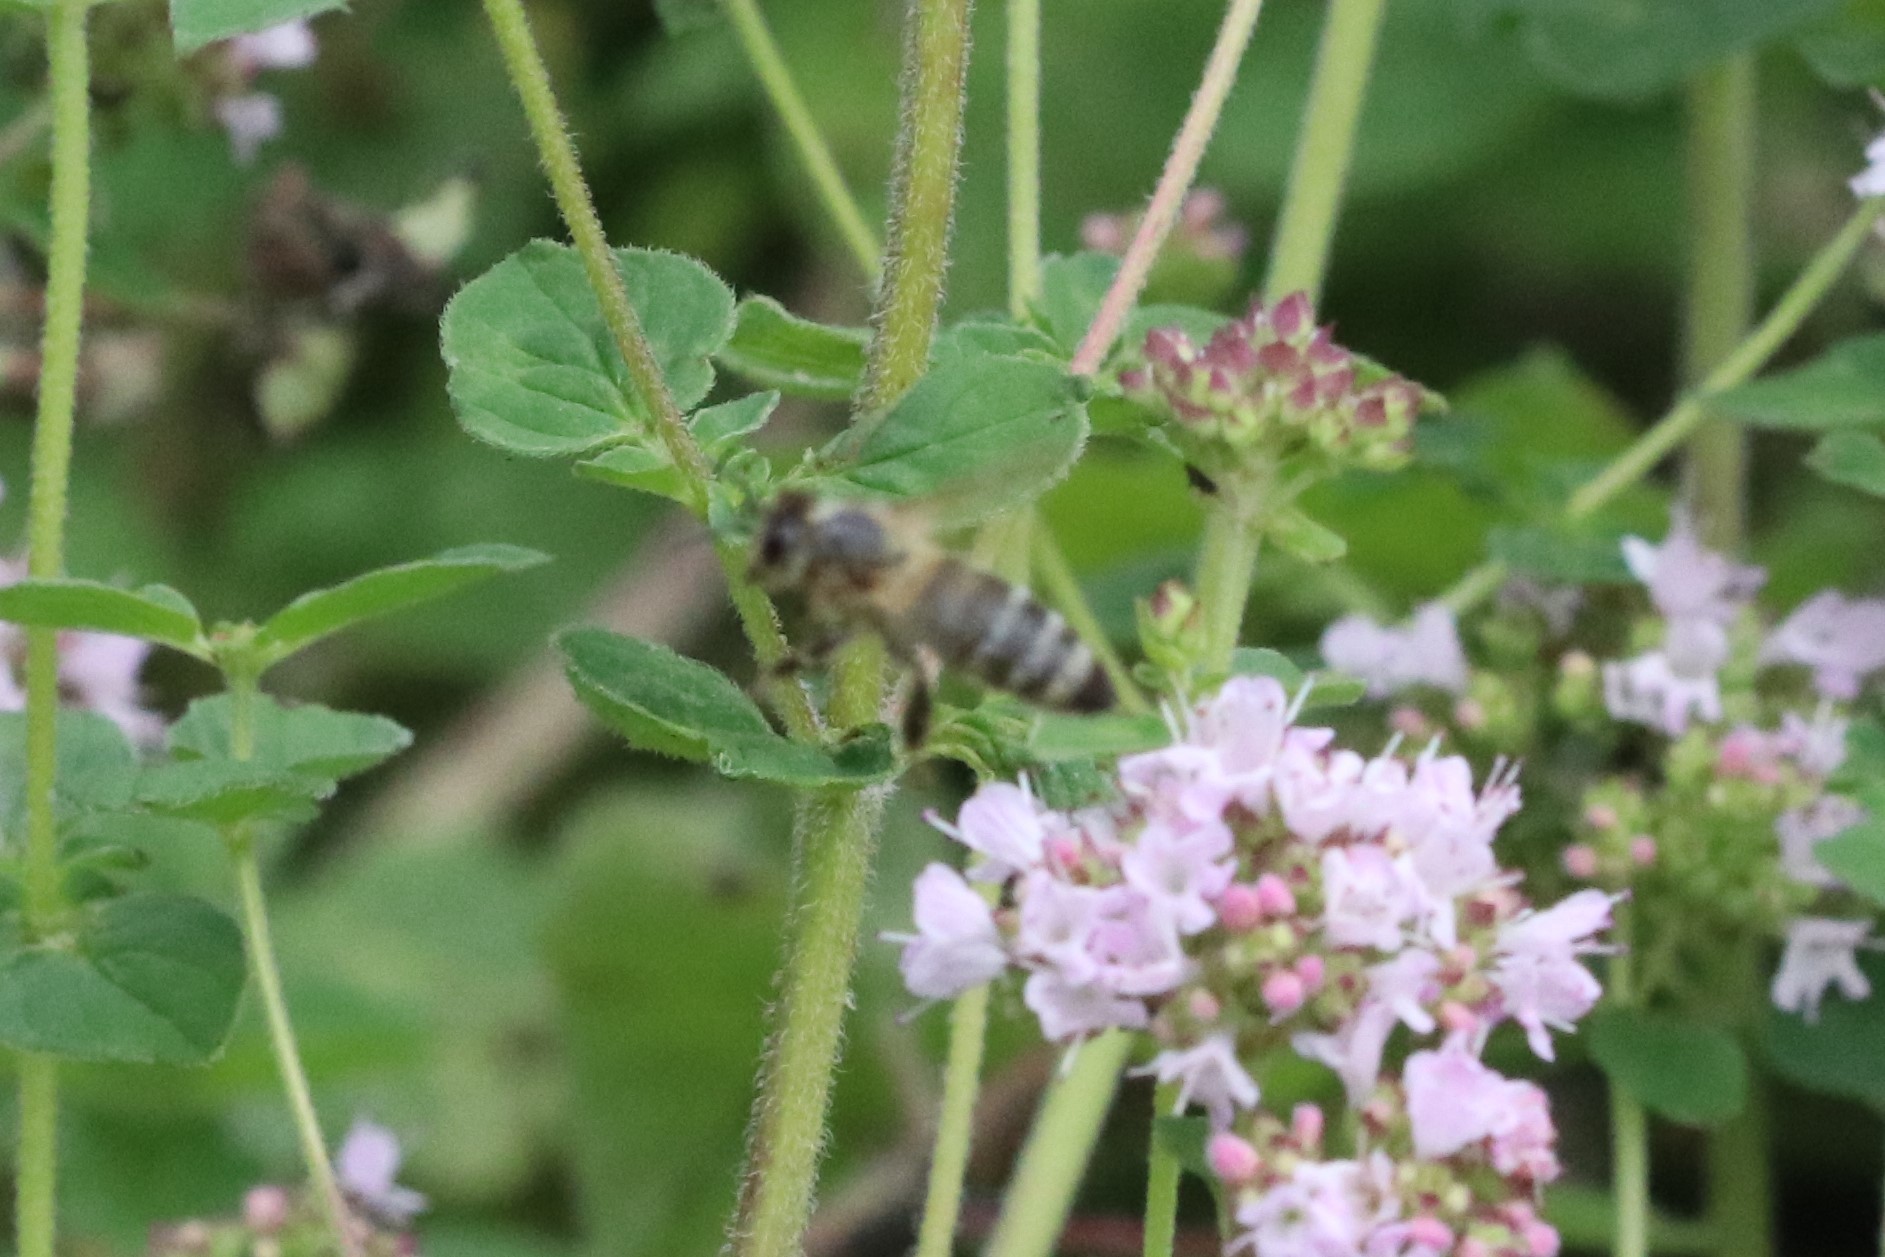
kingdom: Animalia
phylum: Arthropoda
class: Insecta
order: Hymenoptera
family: Apidae
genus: Apis
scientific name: Apis mellifera
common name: Honey bee
